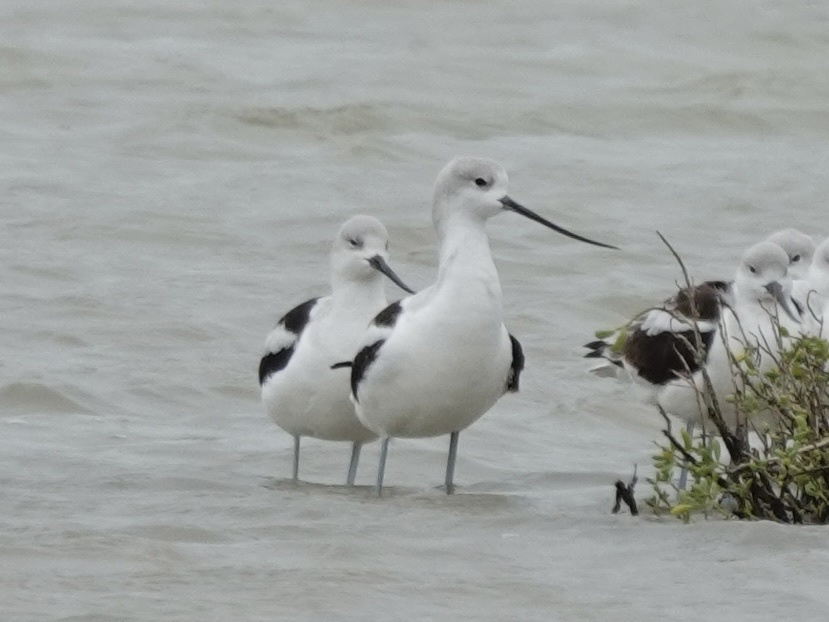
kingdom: Animalia
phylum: Chordata
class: Aves
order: Charadriiformes
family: Recurvirostridae
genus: Recurvirostra
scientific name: Recurvirostra americana
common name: American avocet
